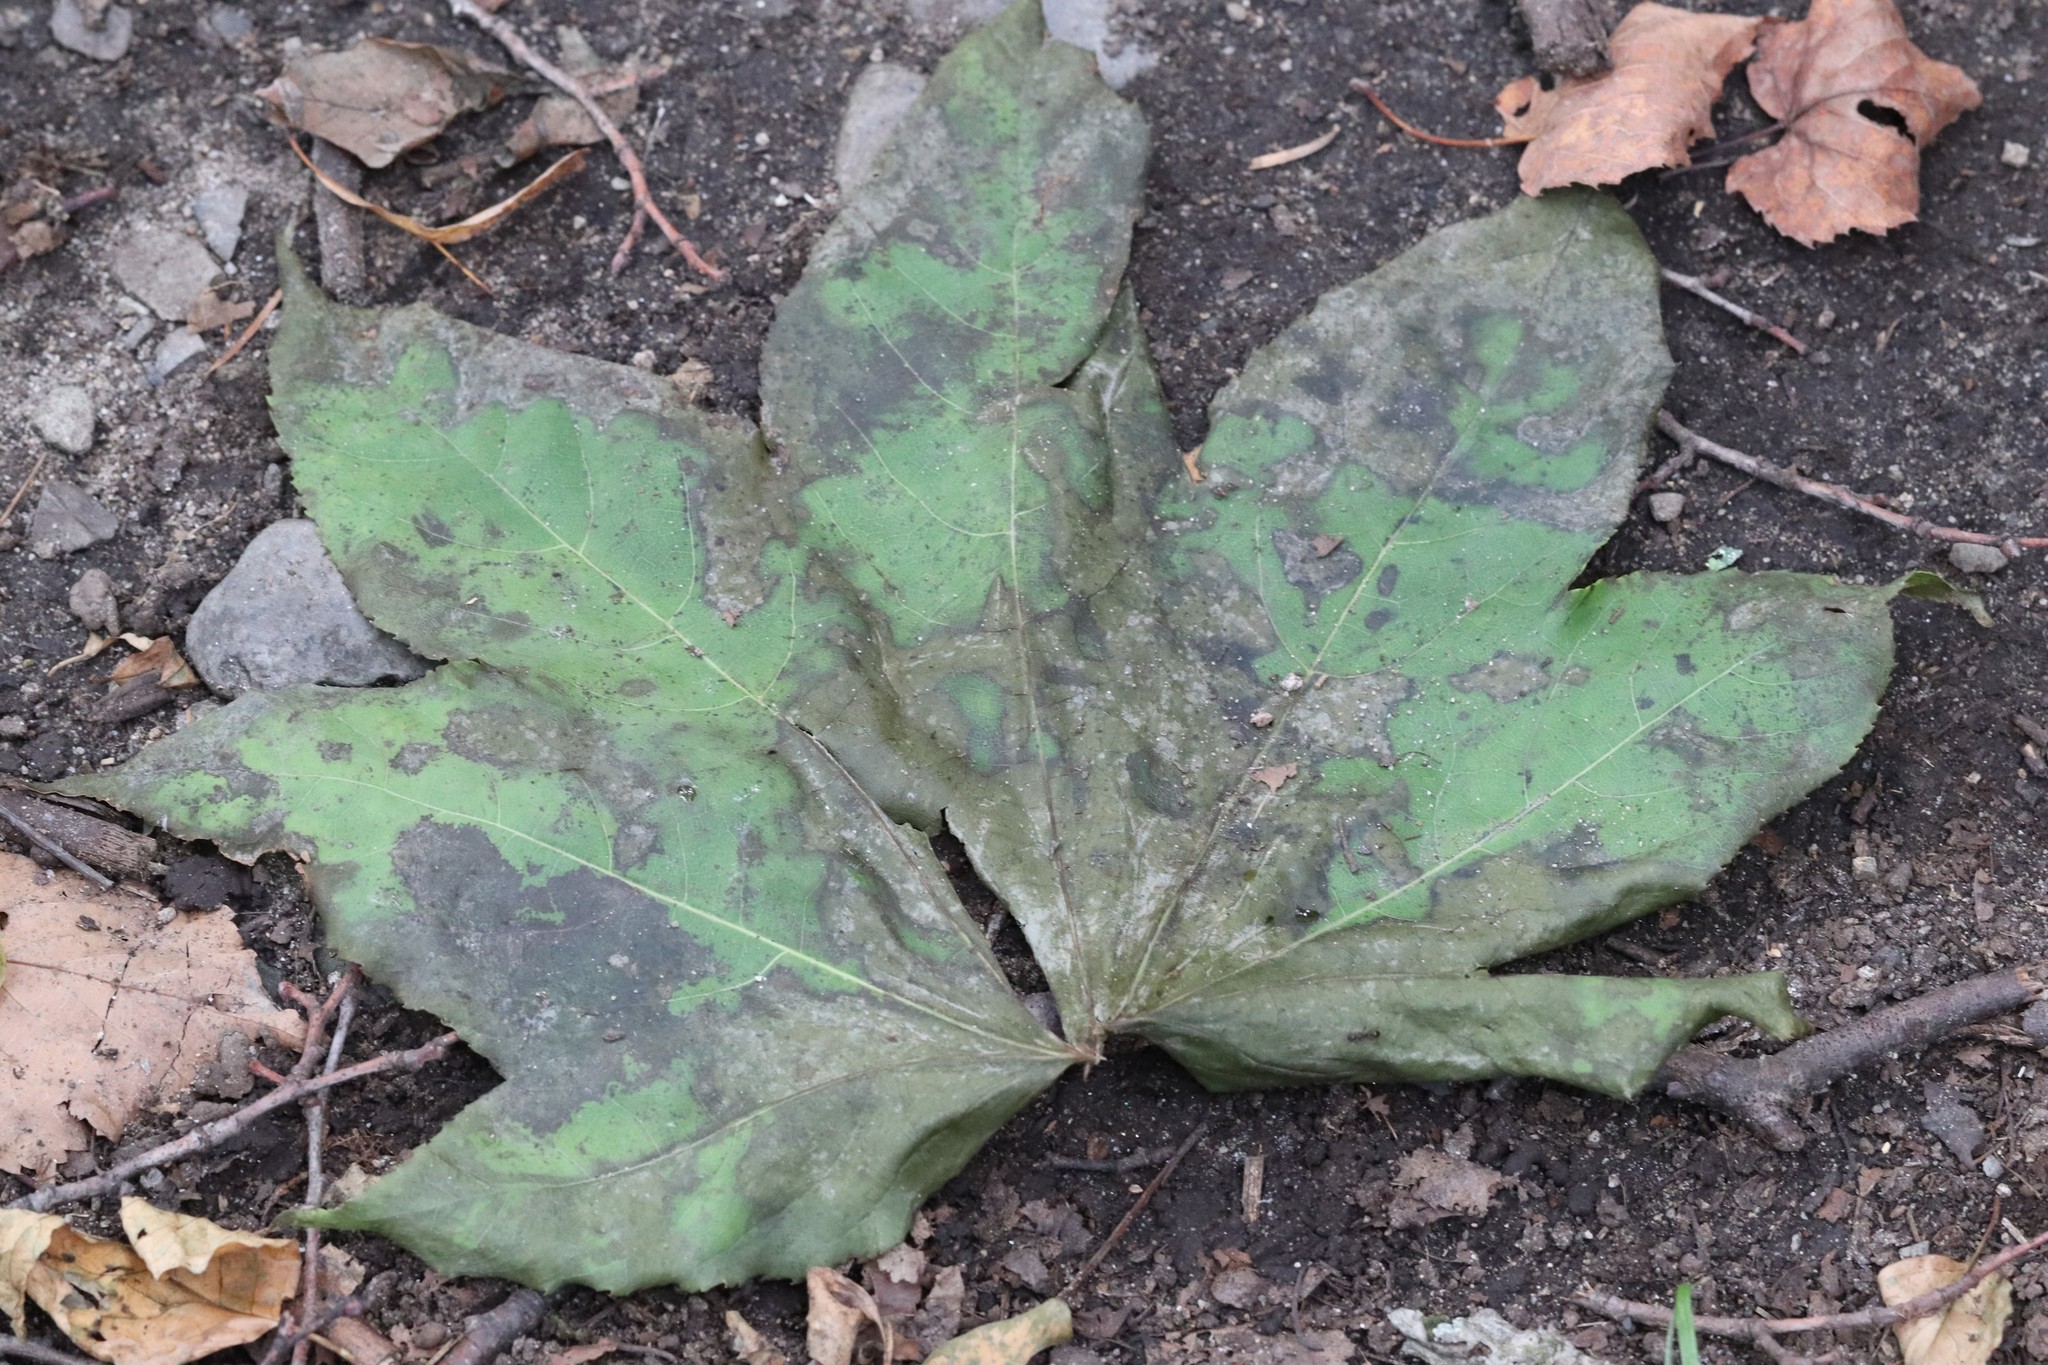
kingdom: Plantae
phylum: Tracheophyta
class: Magnoliopsida
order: Apiales
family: Araliaceae
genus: Kalopanax
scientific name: Kalopanax septemlobus
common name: Castor aralia
